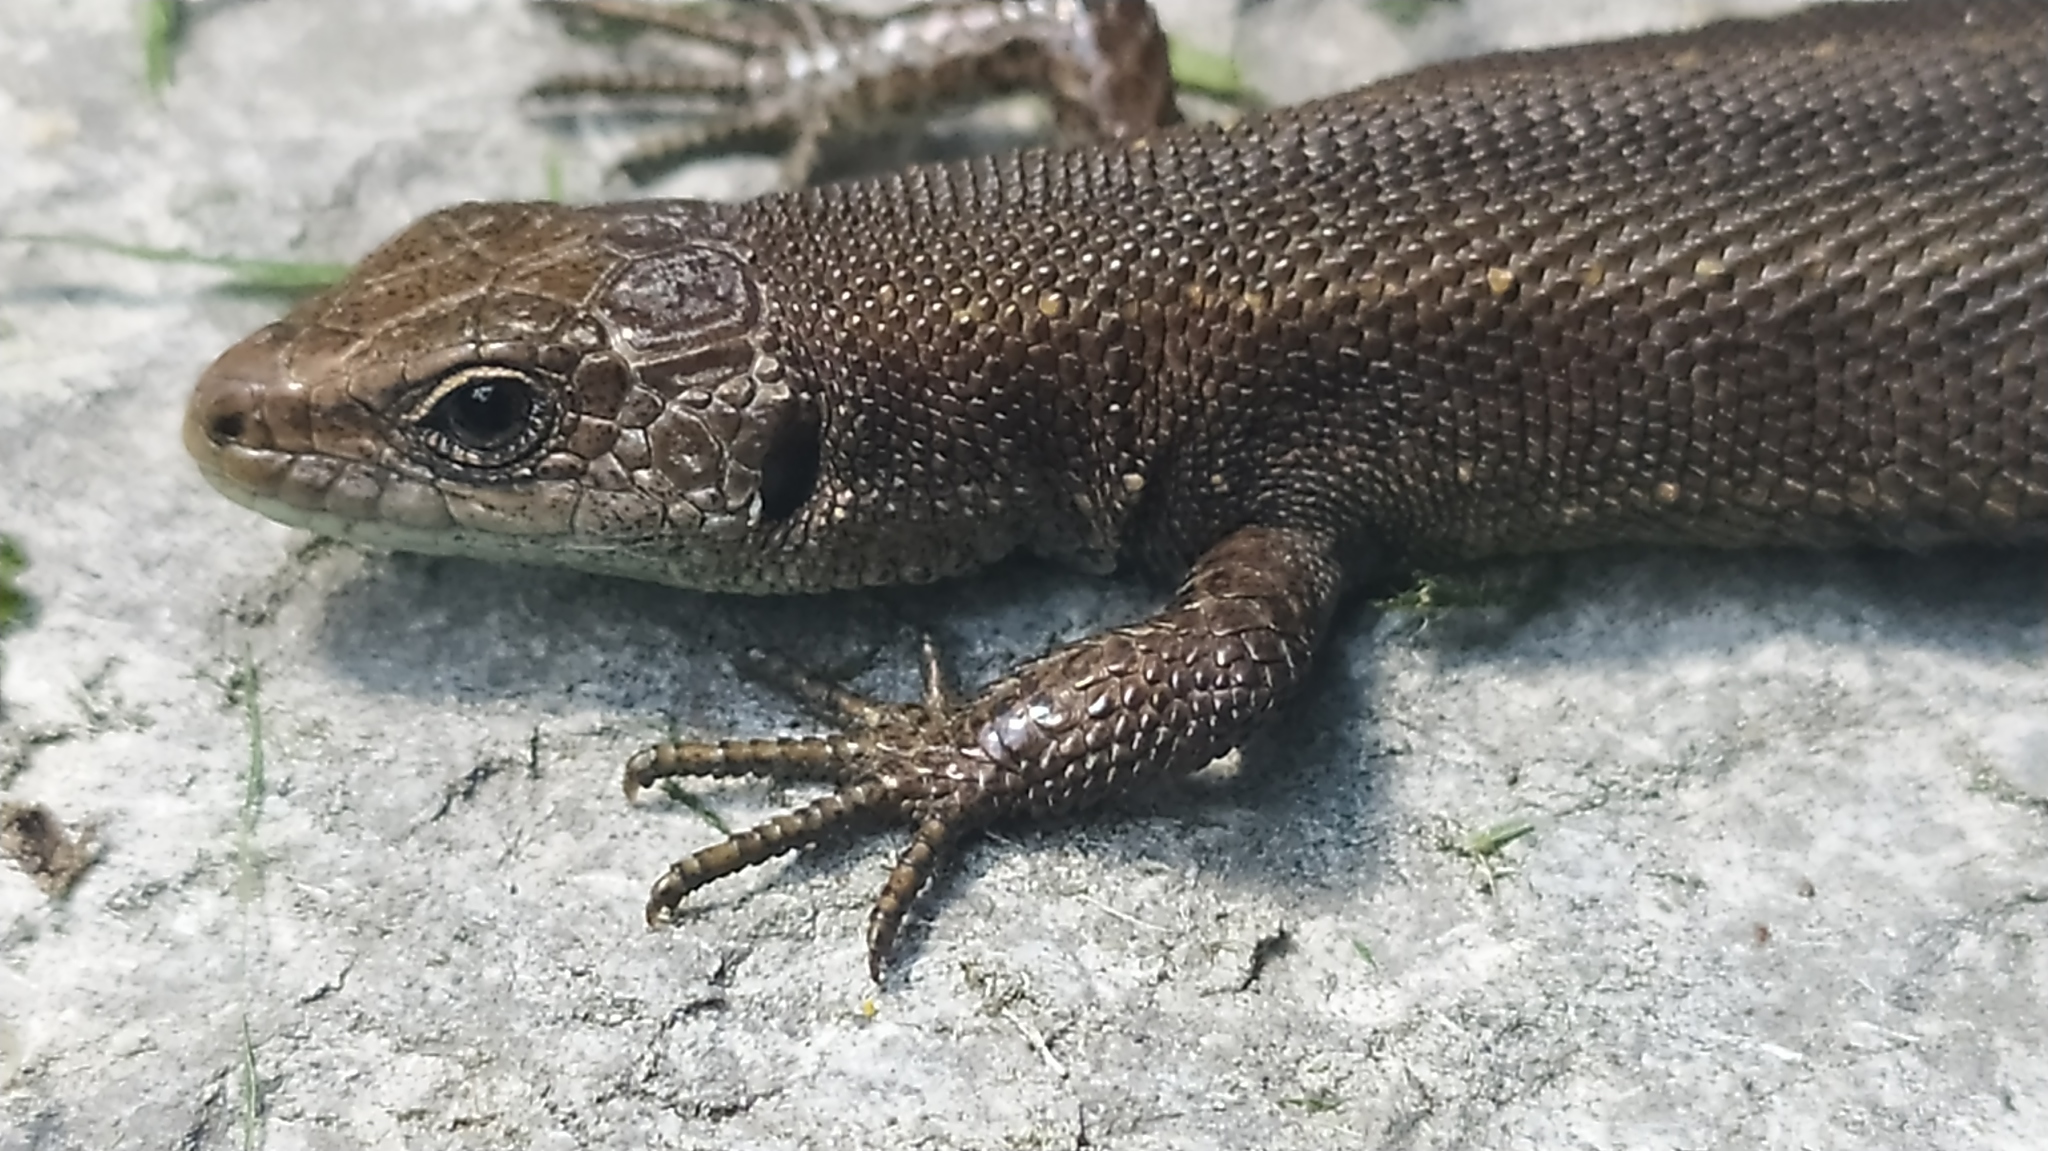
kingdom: Animalia
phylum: Chordata
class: Squamata
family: Lacertidae
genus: Zootoca
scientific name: Zootoca vivipara
